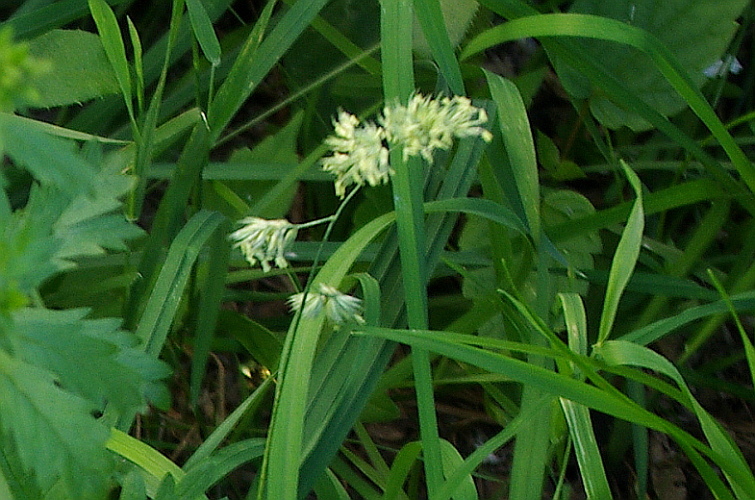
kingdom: Plantae
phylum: Tracheophyta
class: Liliopsida
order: Poales
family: Poaceae
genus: Dactylis
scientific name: Dactylis glomerata
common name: Orchardgrass
